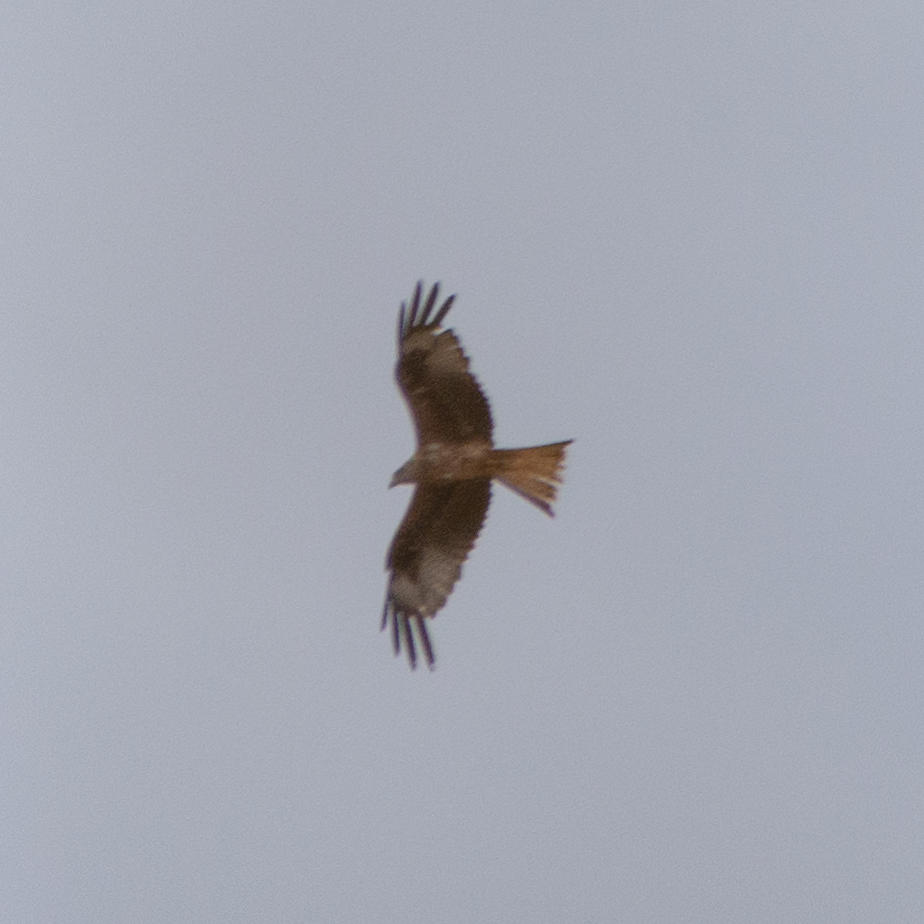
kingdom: Animalia
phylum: Chordata
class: Aves
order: Accipitriformes
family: Accipitridae
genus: Milvus
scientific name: Milvus milvus
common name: Red kite
